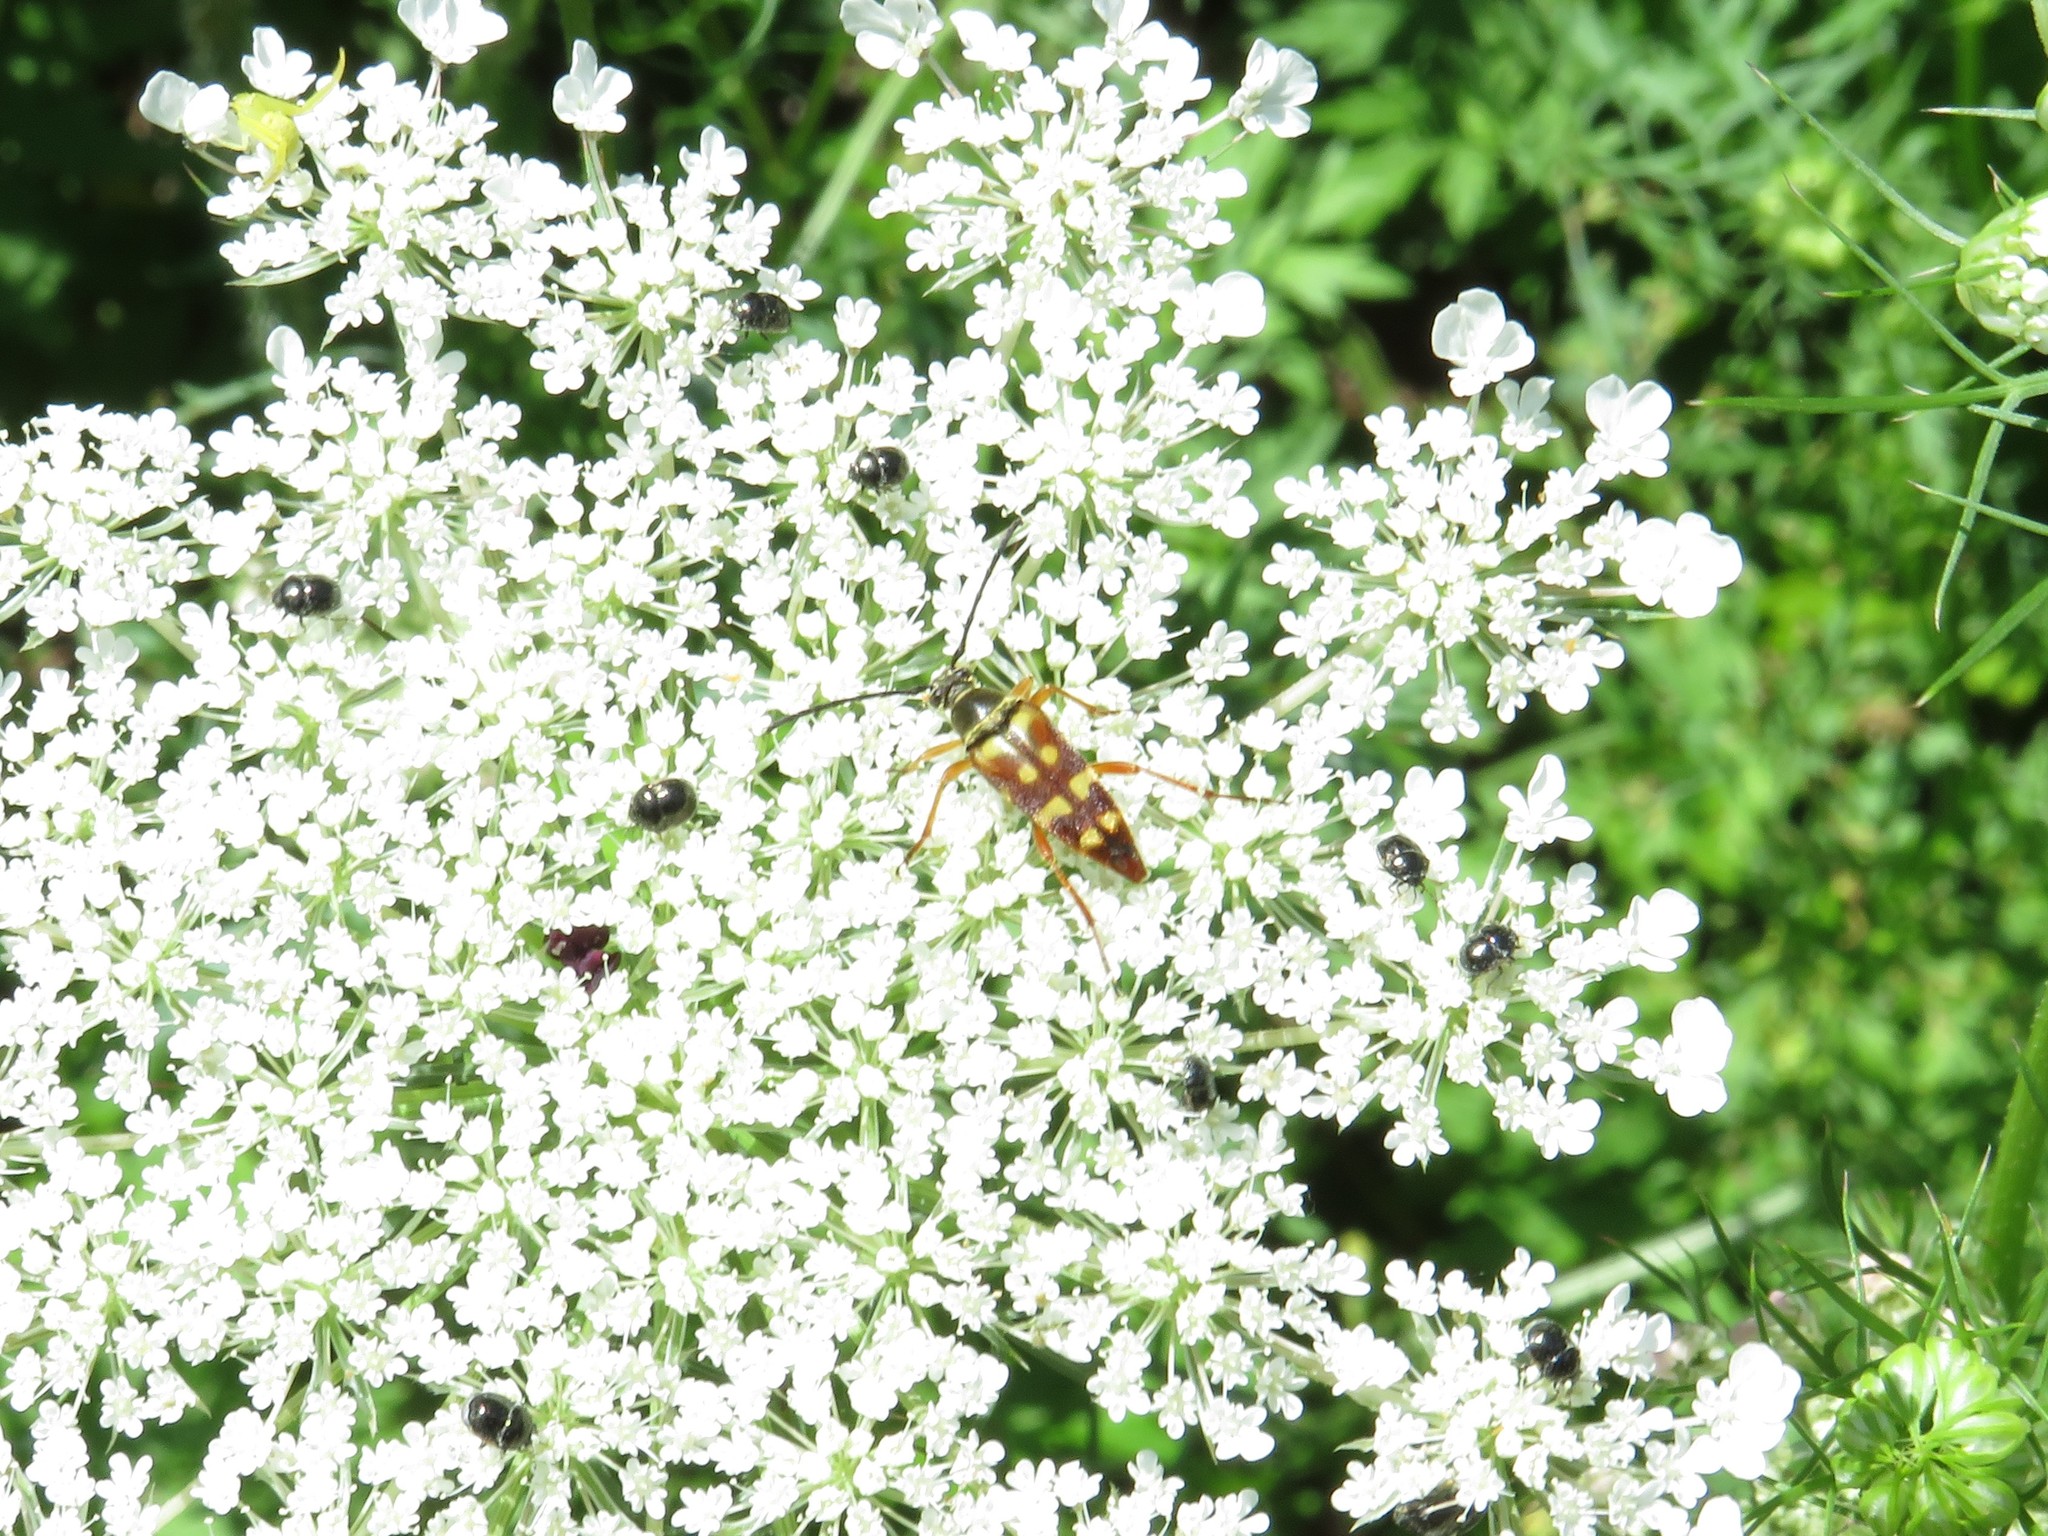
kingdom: Animalia
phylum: Arthropoda
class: Insecta
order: Coleoptera
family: Cerambycidae
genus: Typocerus
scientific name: Typocerus velutinus
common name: Banded longhorn beetle
